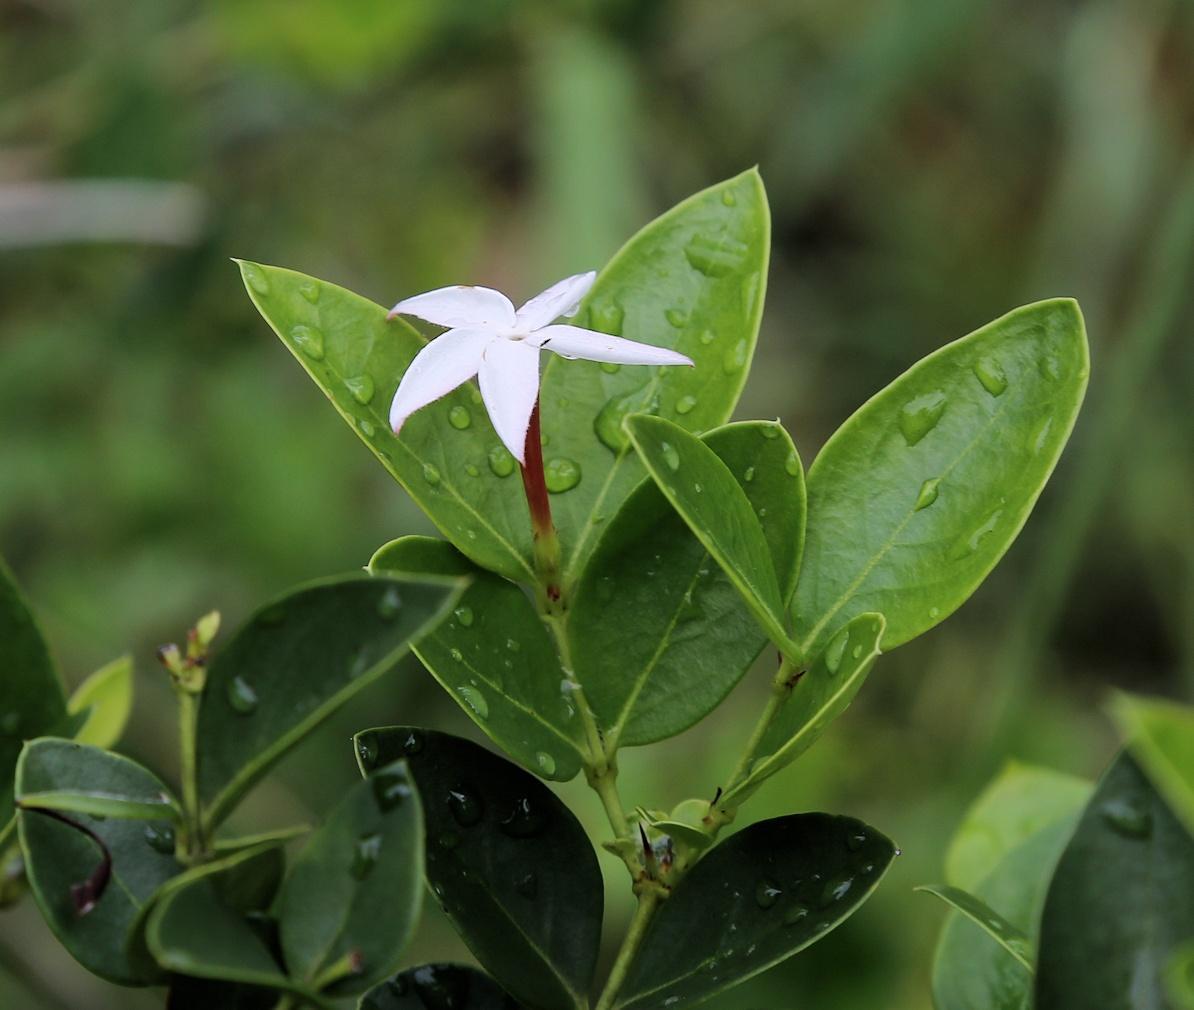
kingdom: Plantae
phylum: Tracheophyta
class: Magnoliopsida
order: Gentianales
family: Apocynaceae
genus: Carissa
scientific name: Carissa spinarum
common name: Egyptian carissa
